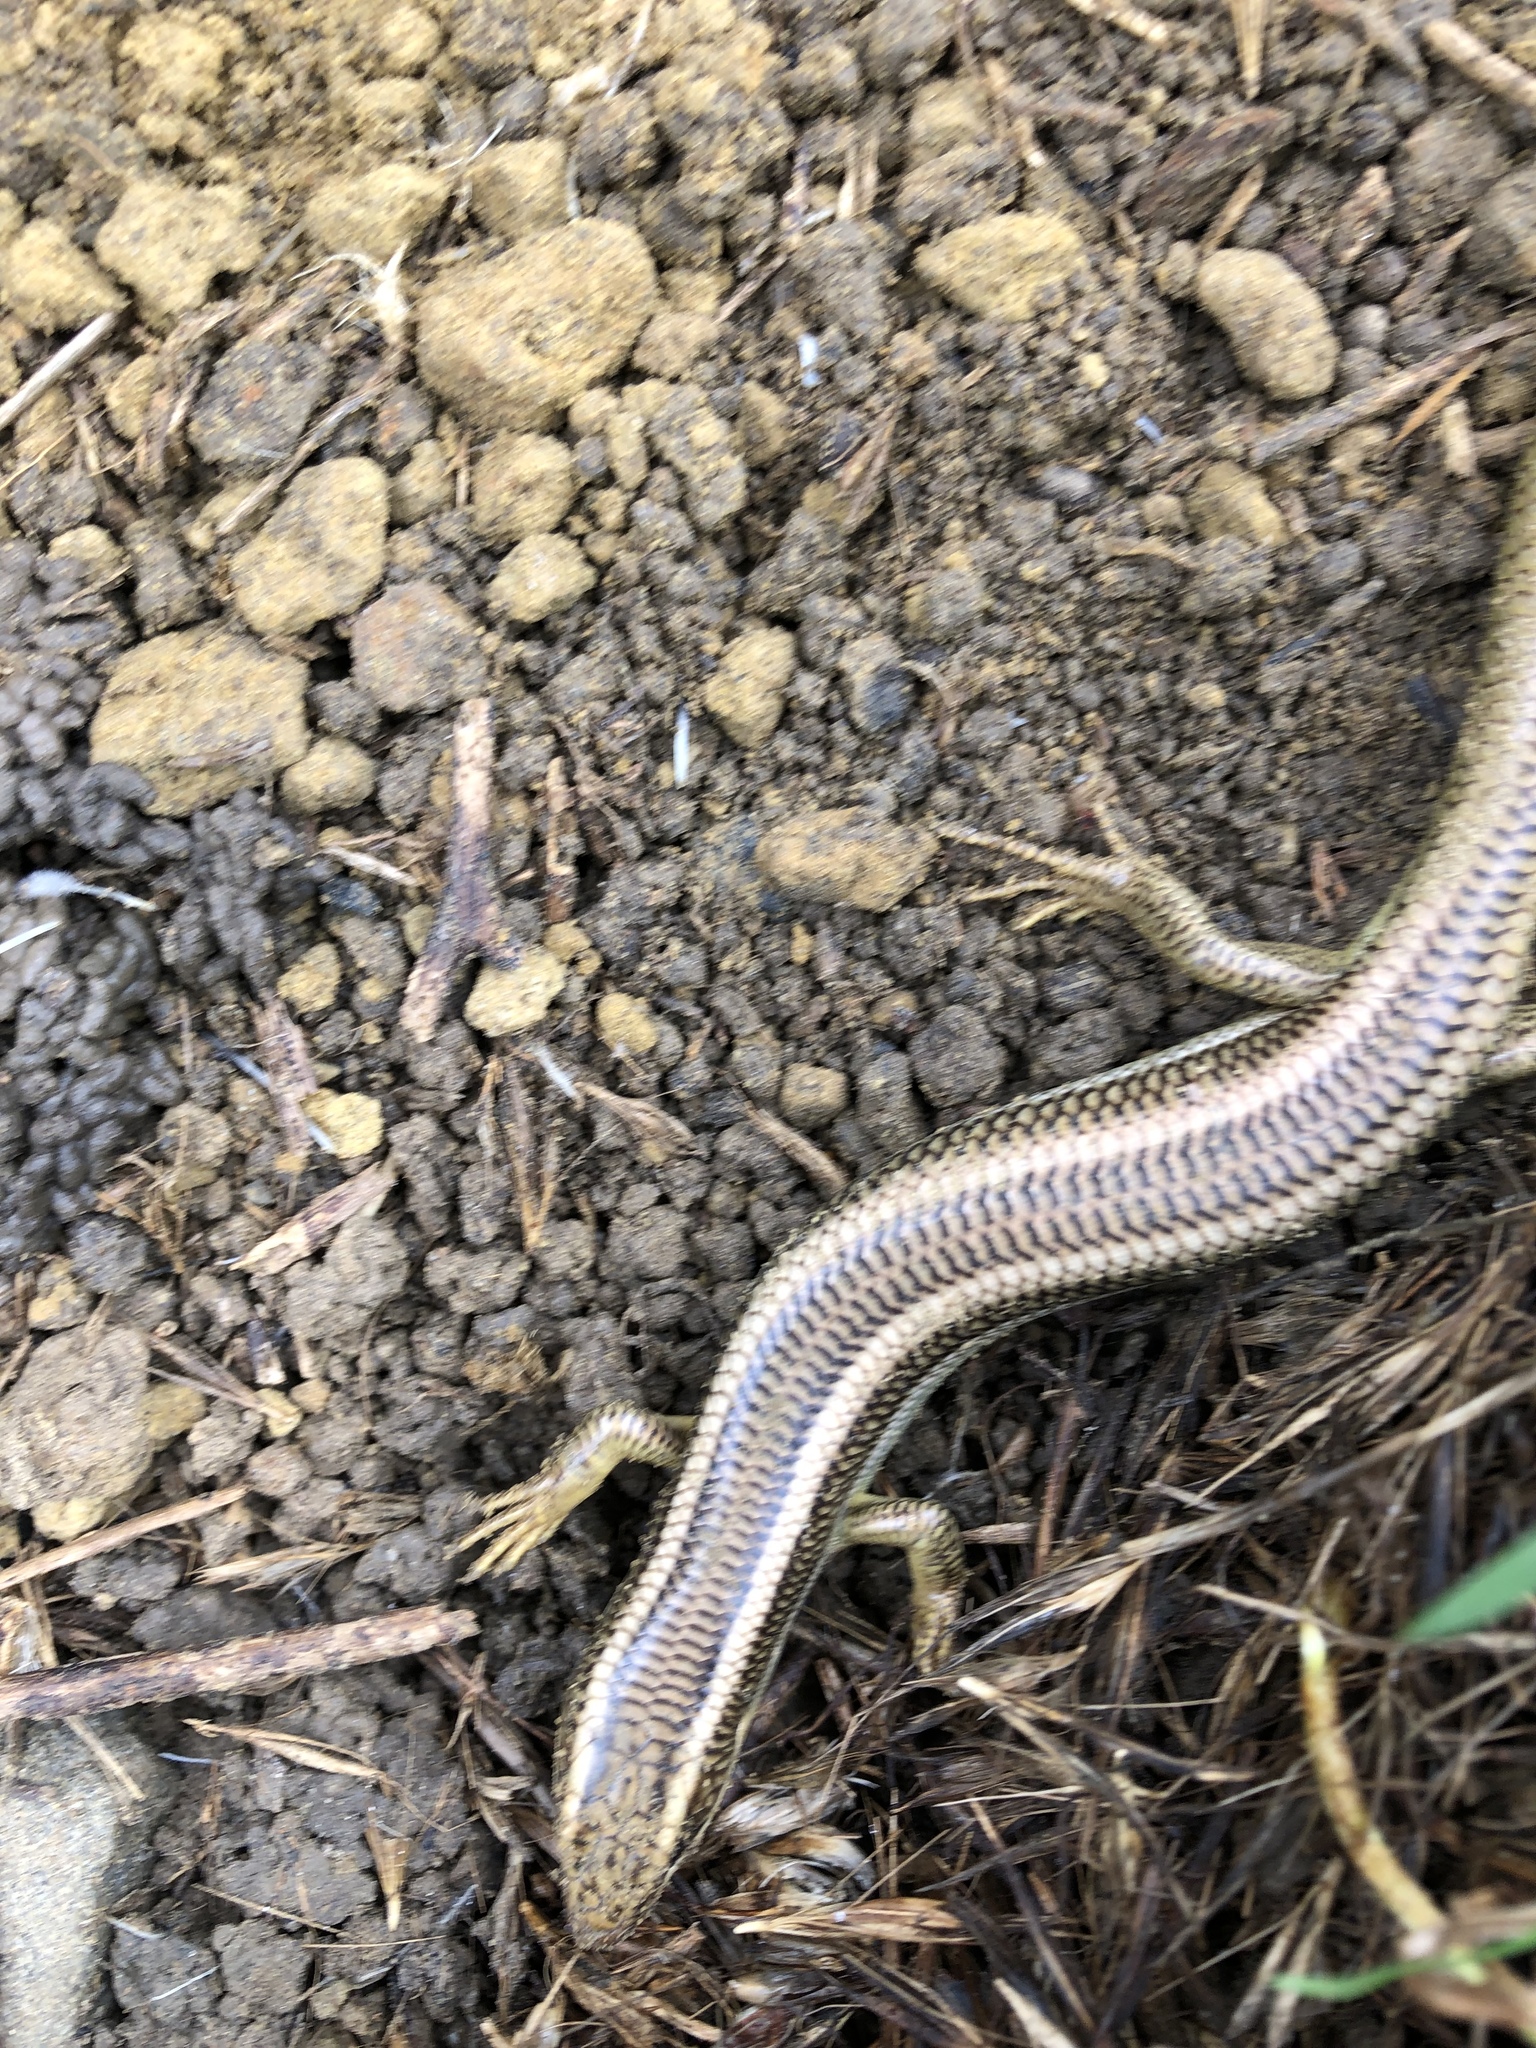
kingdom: Animalia
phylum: Chordata
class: Squamata
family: Scincidae
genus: Plestiodon
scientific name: Plestiodon gilberti
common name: Gilbert's skink
